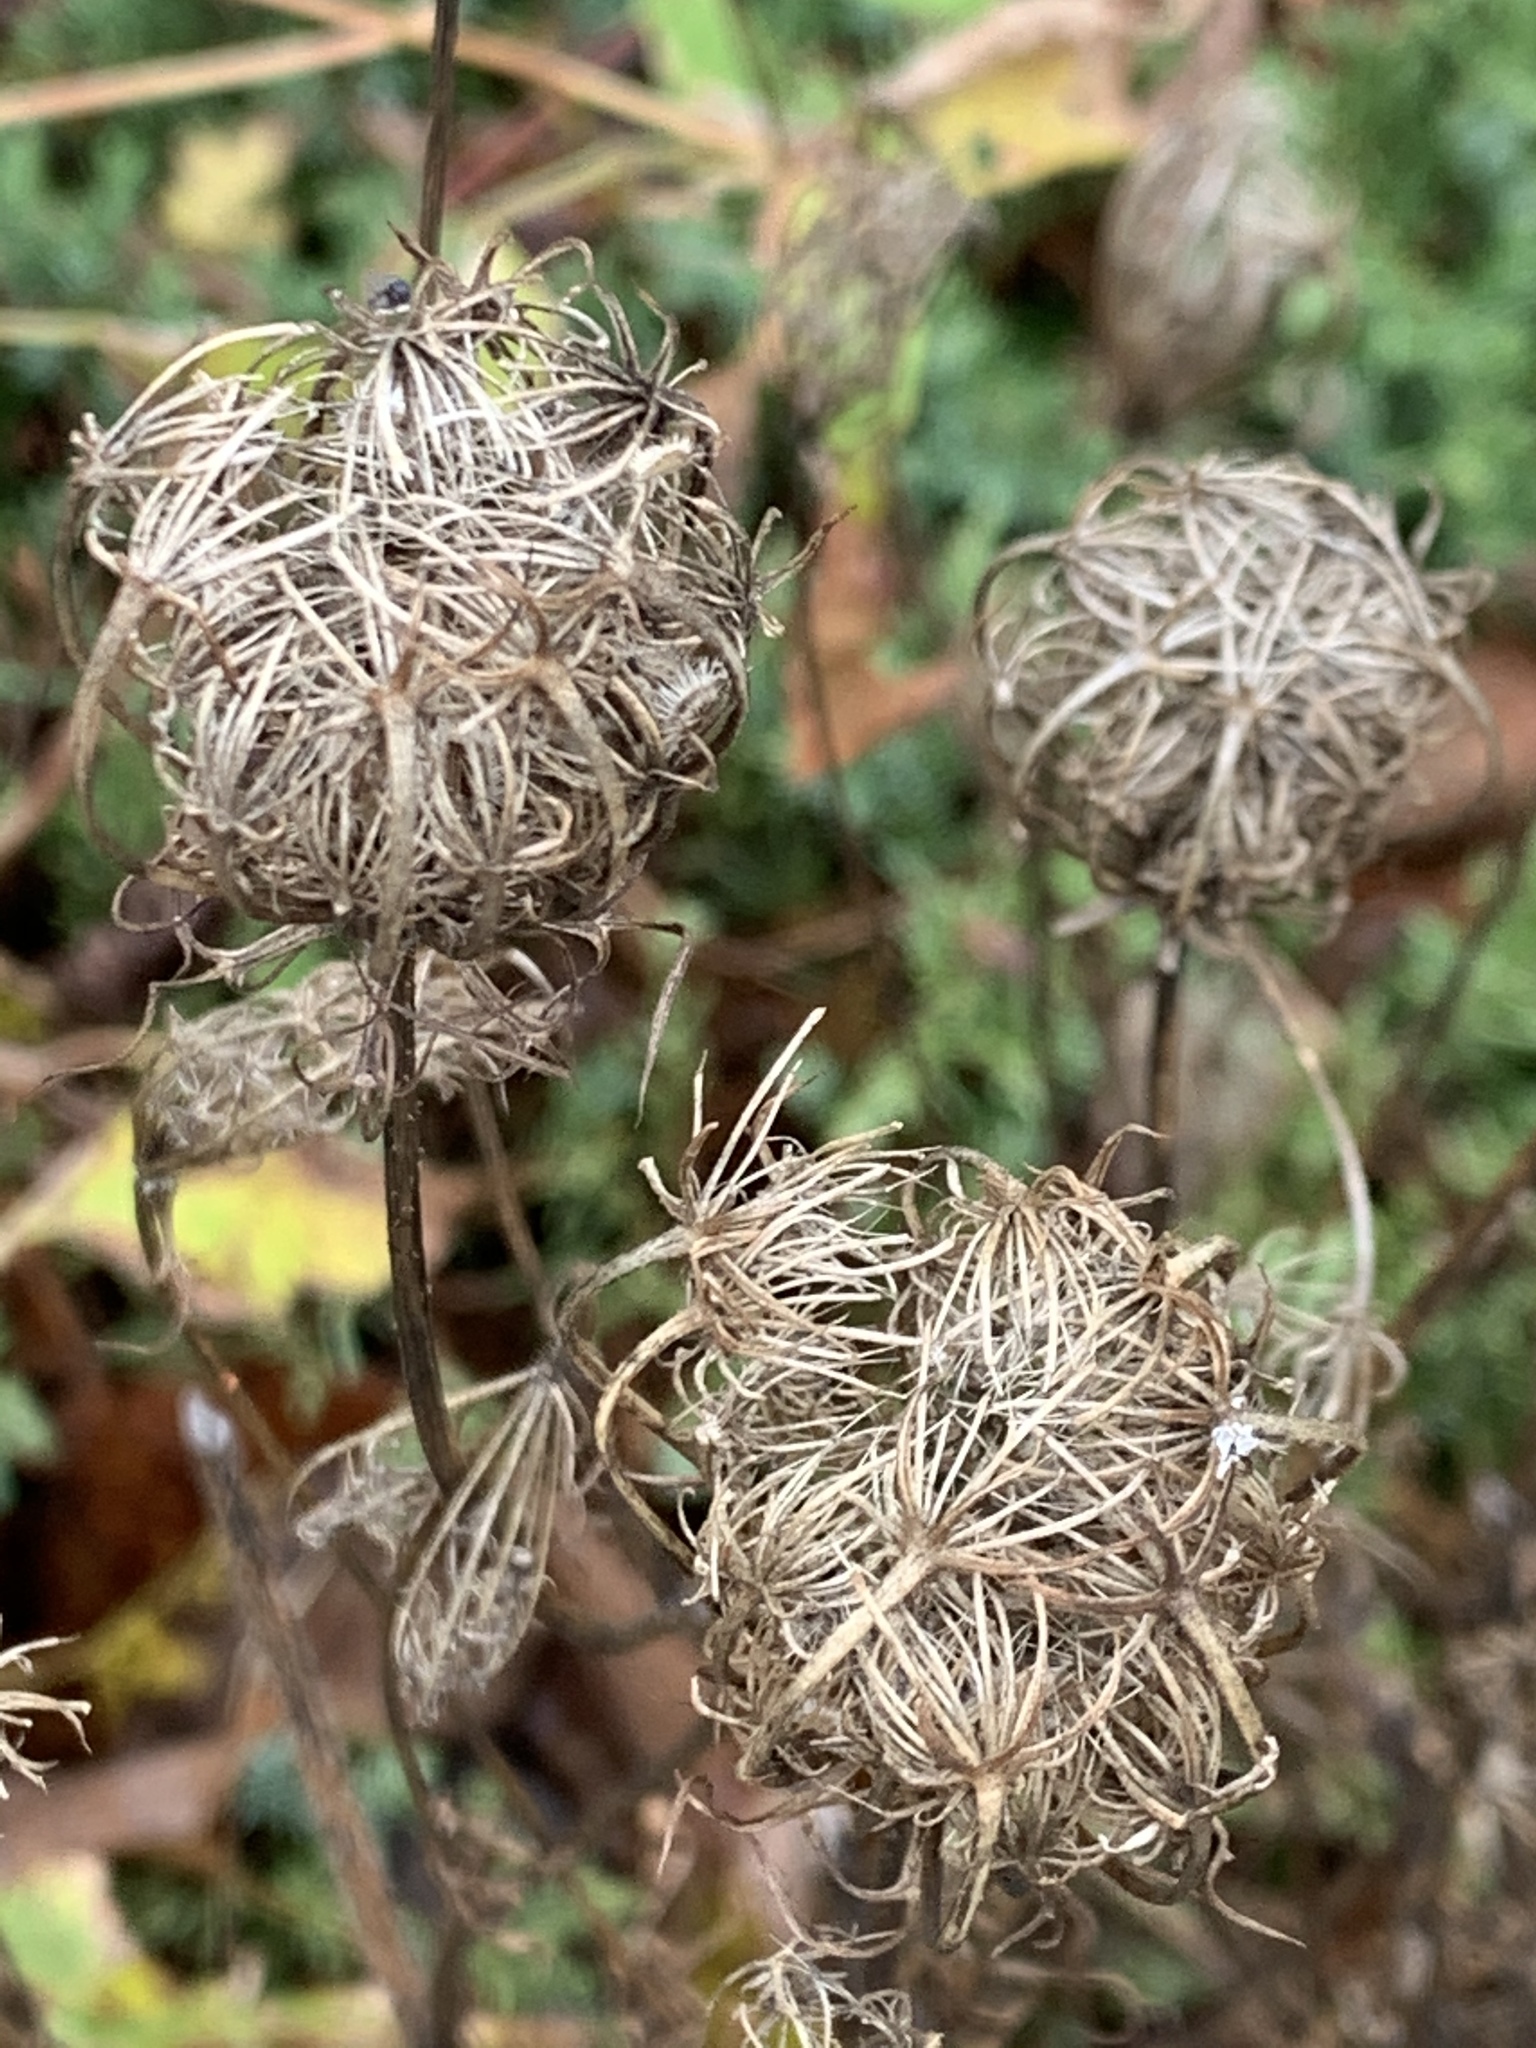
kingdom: Plantae
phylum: Tracheophyta
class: Magnoliopsida
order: Apiales
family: Apiaceae
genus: Daucus
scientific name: Daucus carota
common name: Wild carrot
